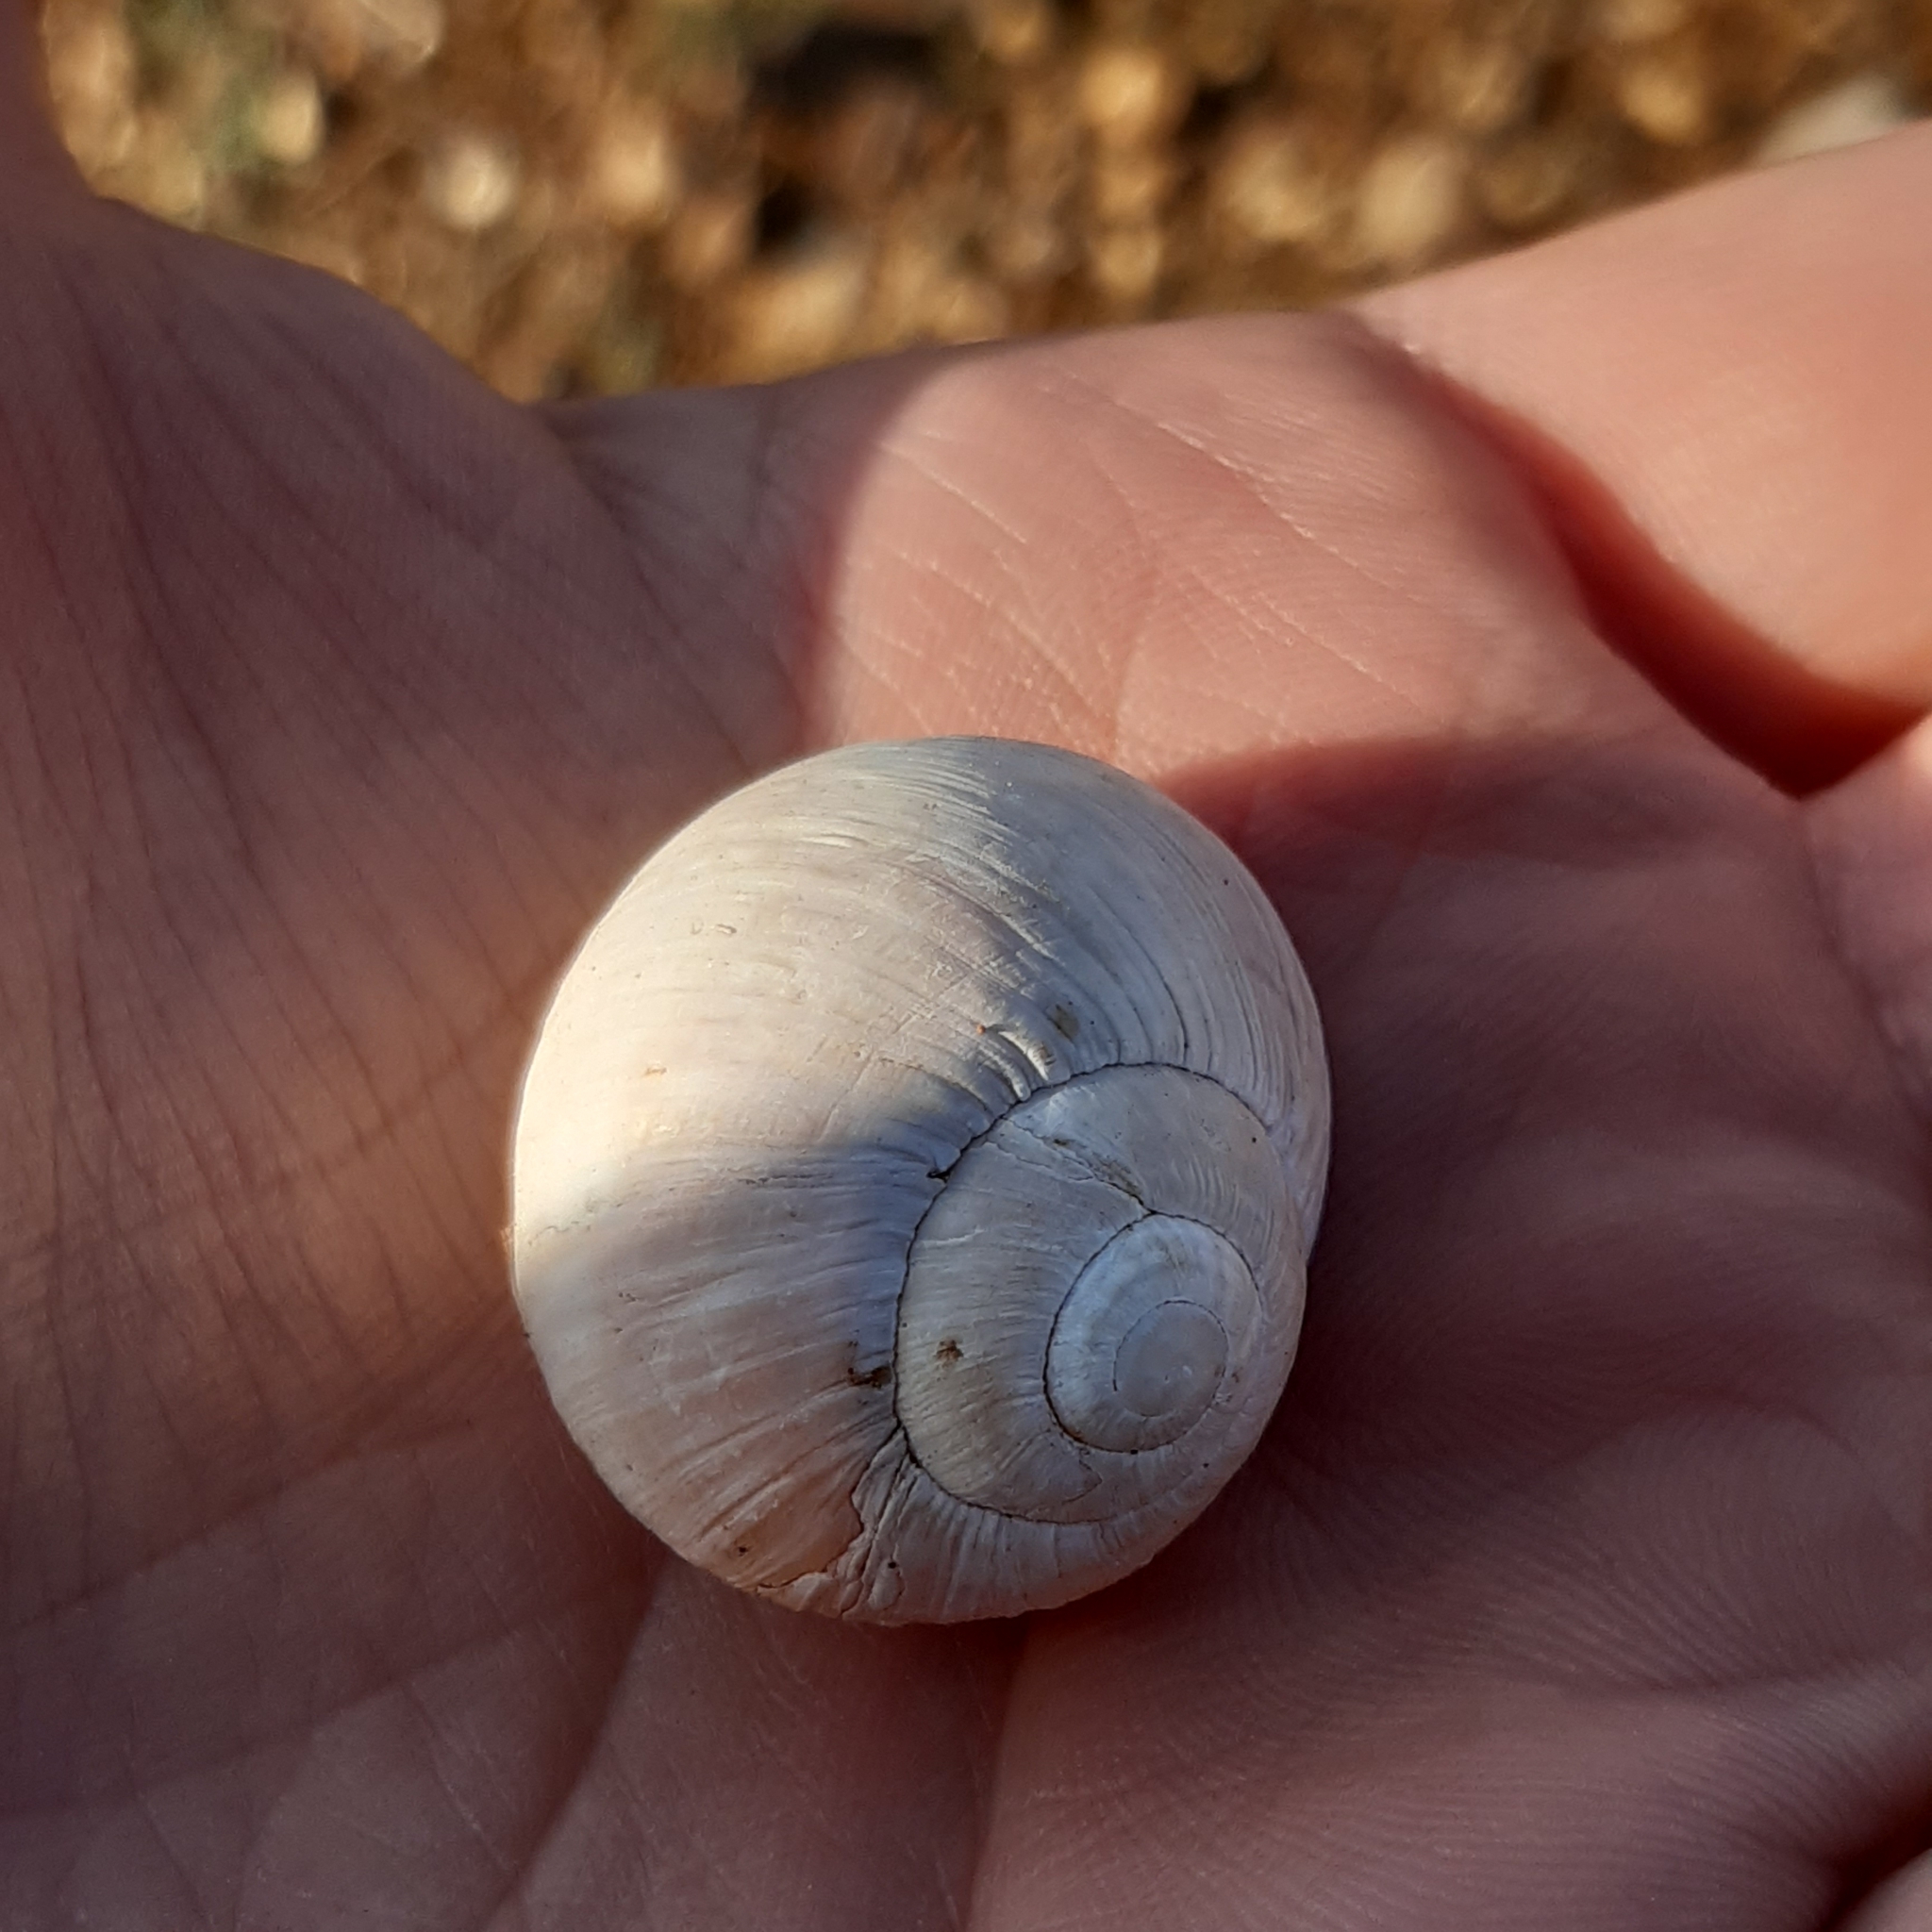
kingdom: Animalia
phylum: Mollusca
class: Gastropoda
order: Stylommatophora
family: Helicidae
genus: Helix
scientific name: Helix melanostoma
